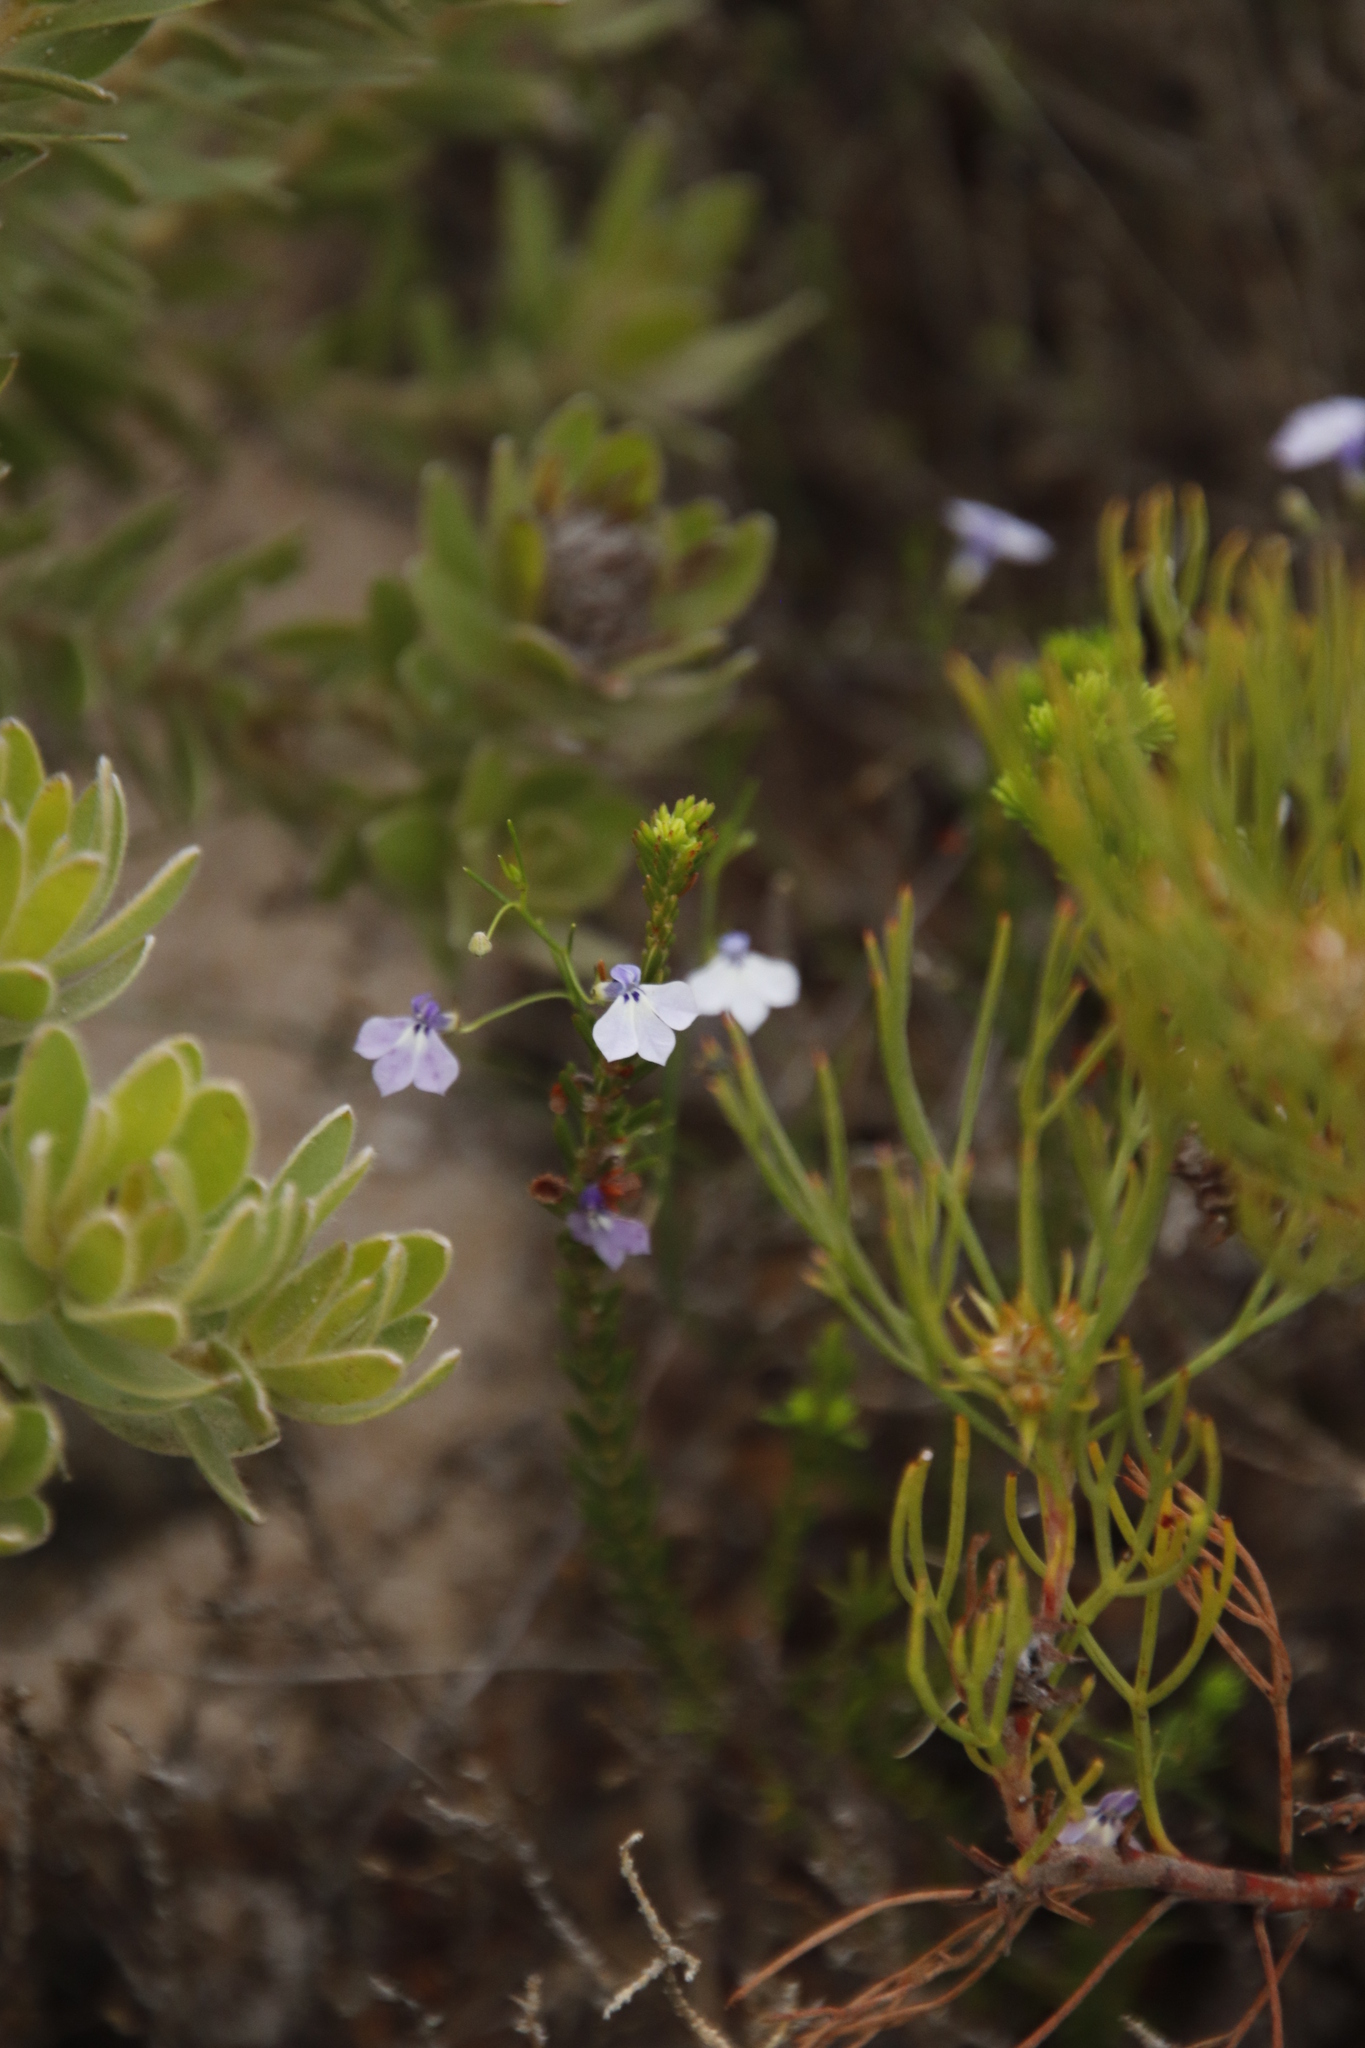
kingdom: Plantae
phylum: Tracheophyta
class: Magnoliopsida
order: Asterales
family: Campanulaceae
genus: Lobelia
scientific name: Lobelia setacea
